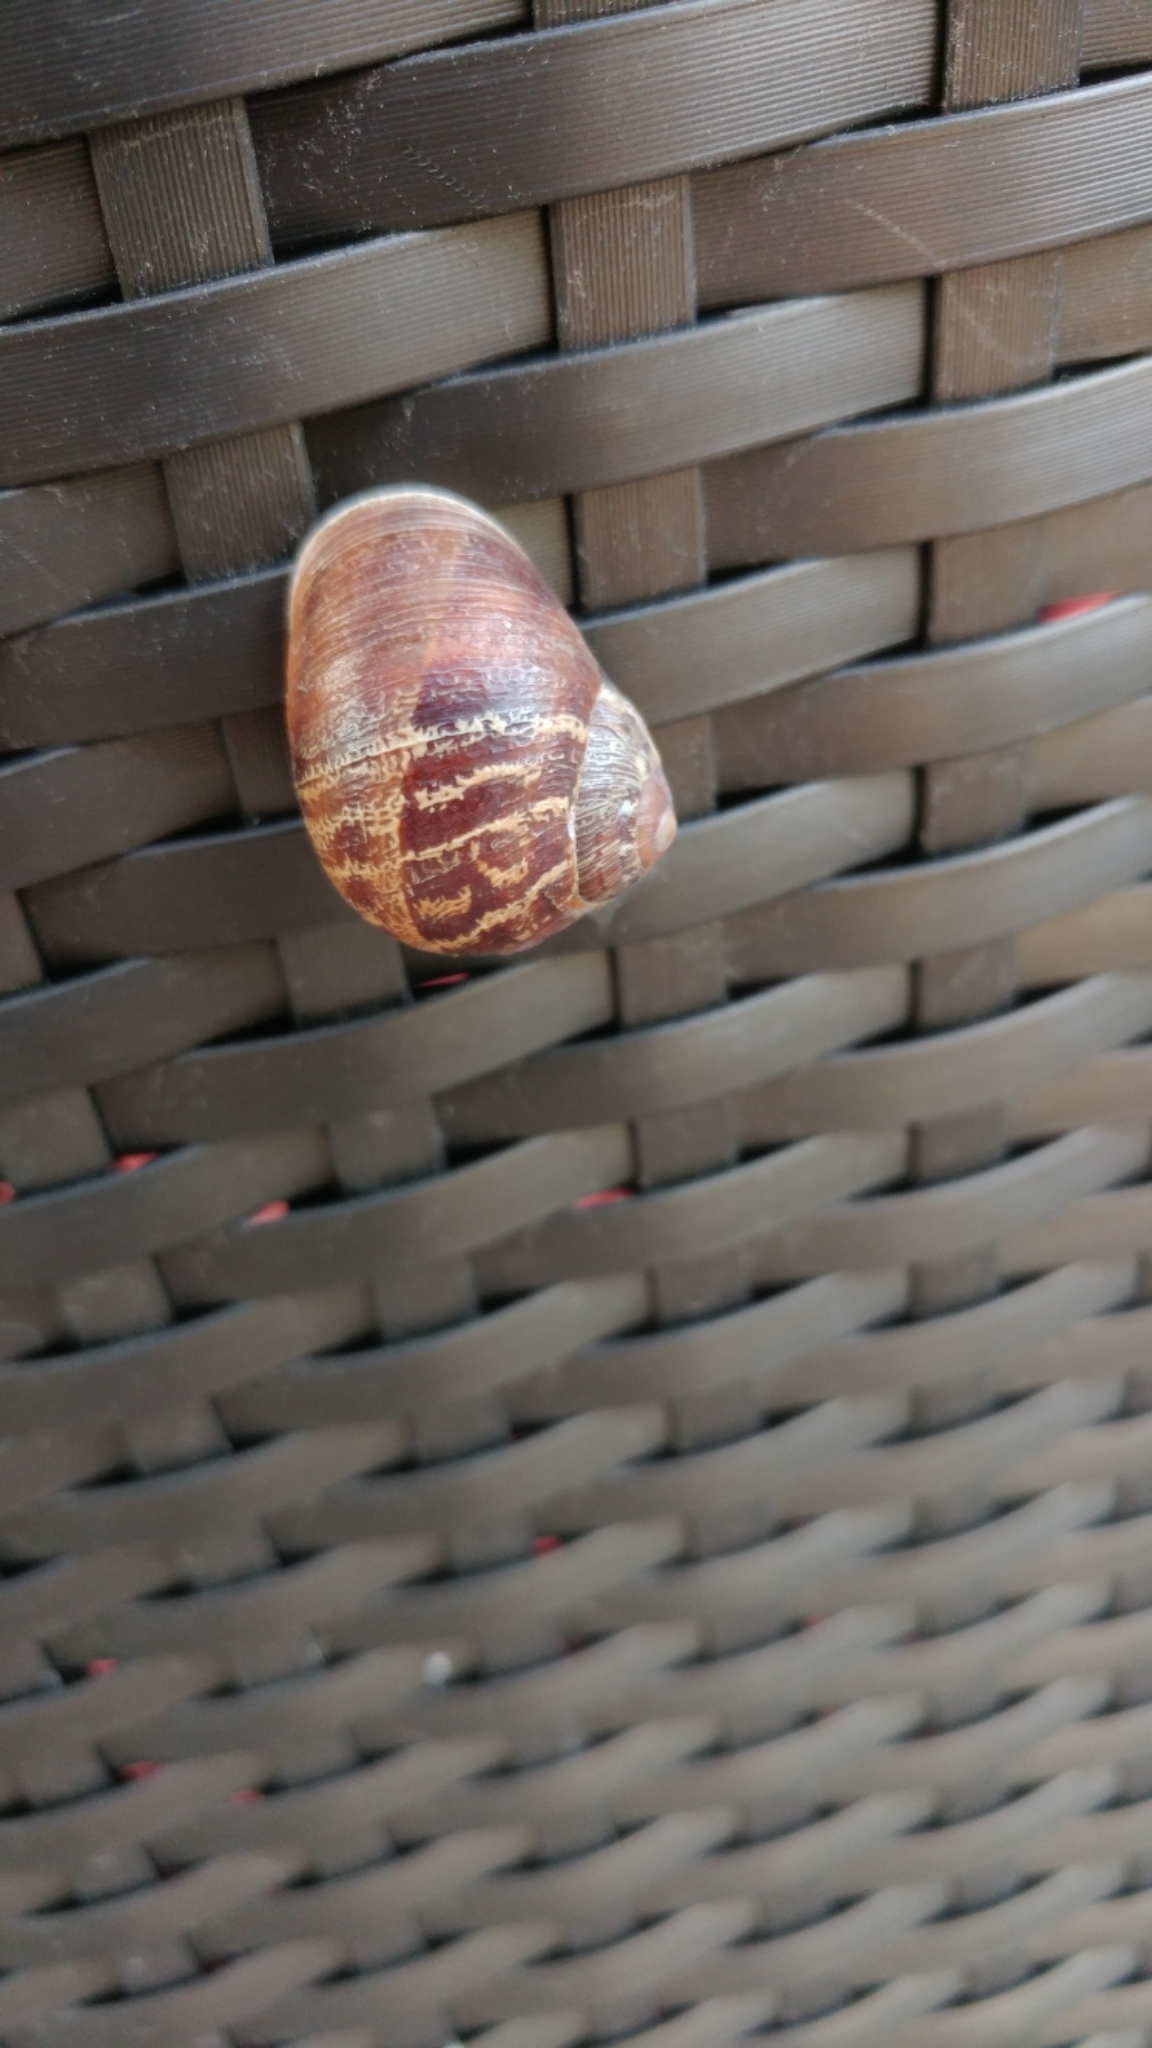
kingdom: Animalia
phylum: Mollusca
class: Gastropoda
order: Stylommatophora
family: Helicidae
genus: Cornu
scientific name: Cornu aspersum
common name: Brown garden snail
